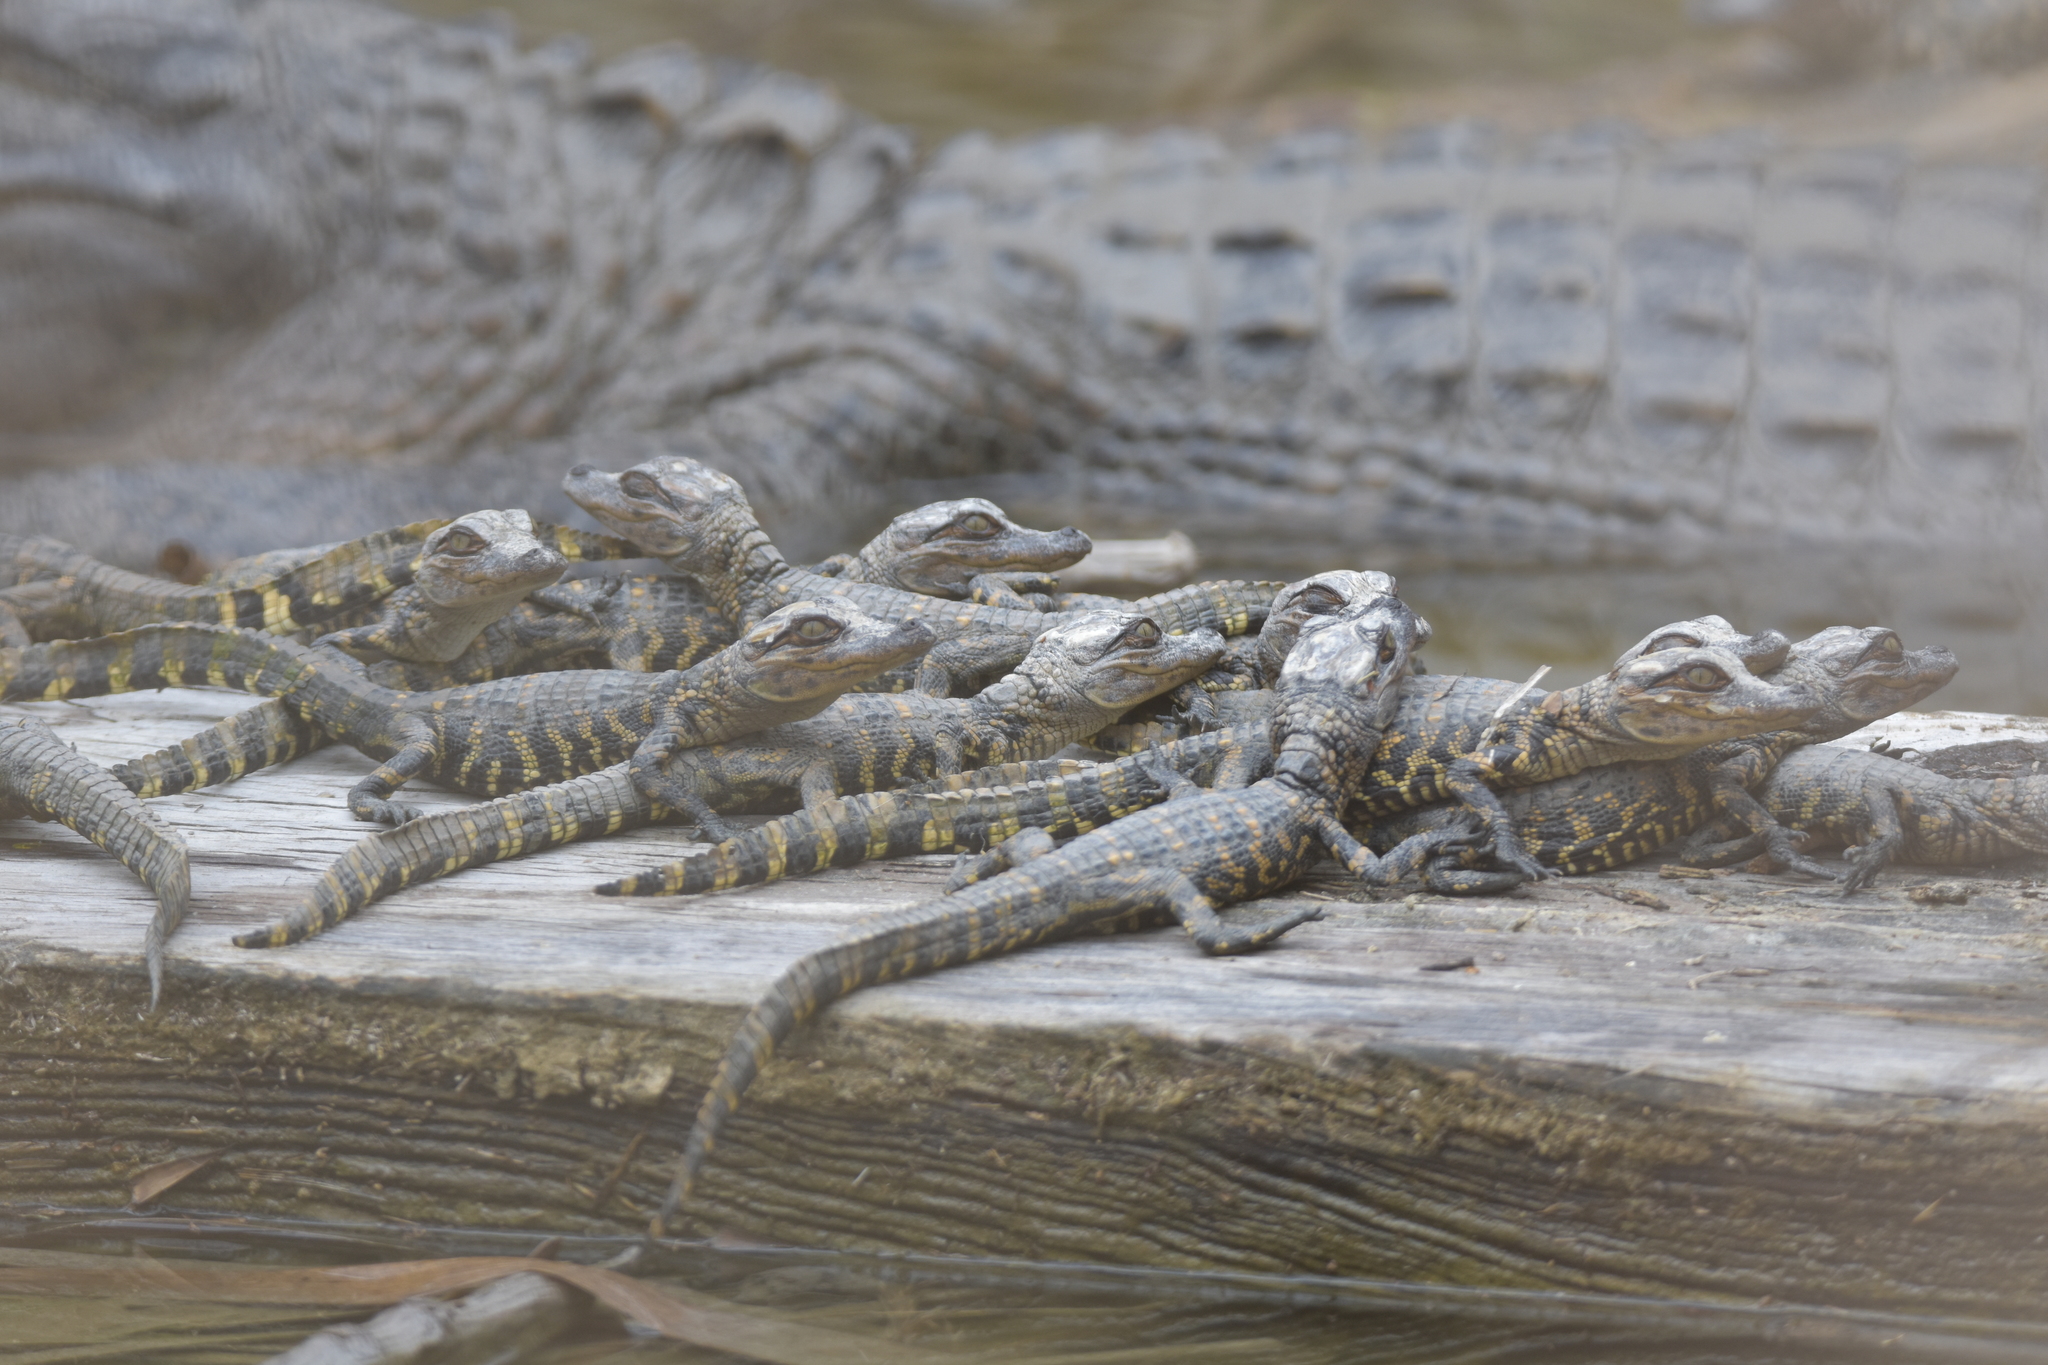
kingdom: Animalia
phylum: Chordata
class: Crocodylia
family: Alligatoridae
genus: Alligator
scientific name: Alligator mississippiensis
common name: American alligator
